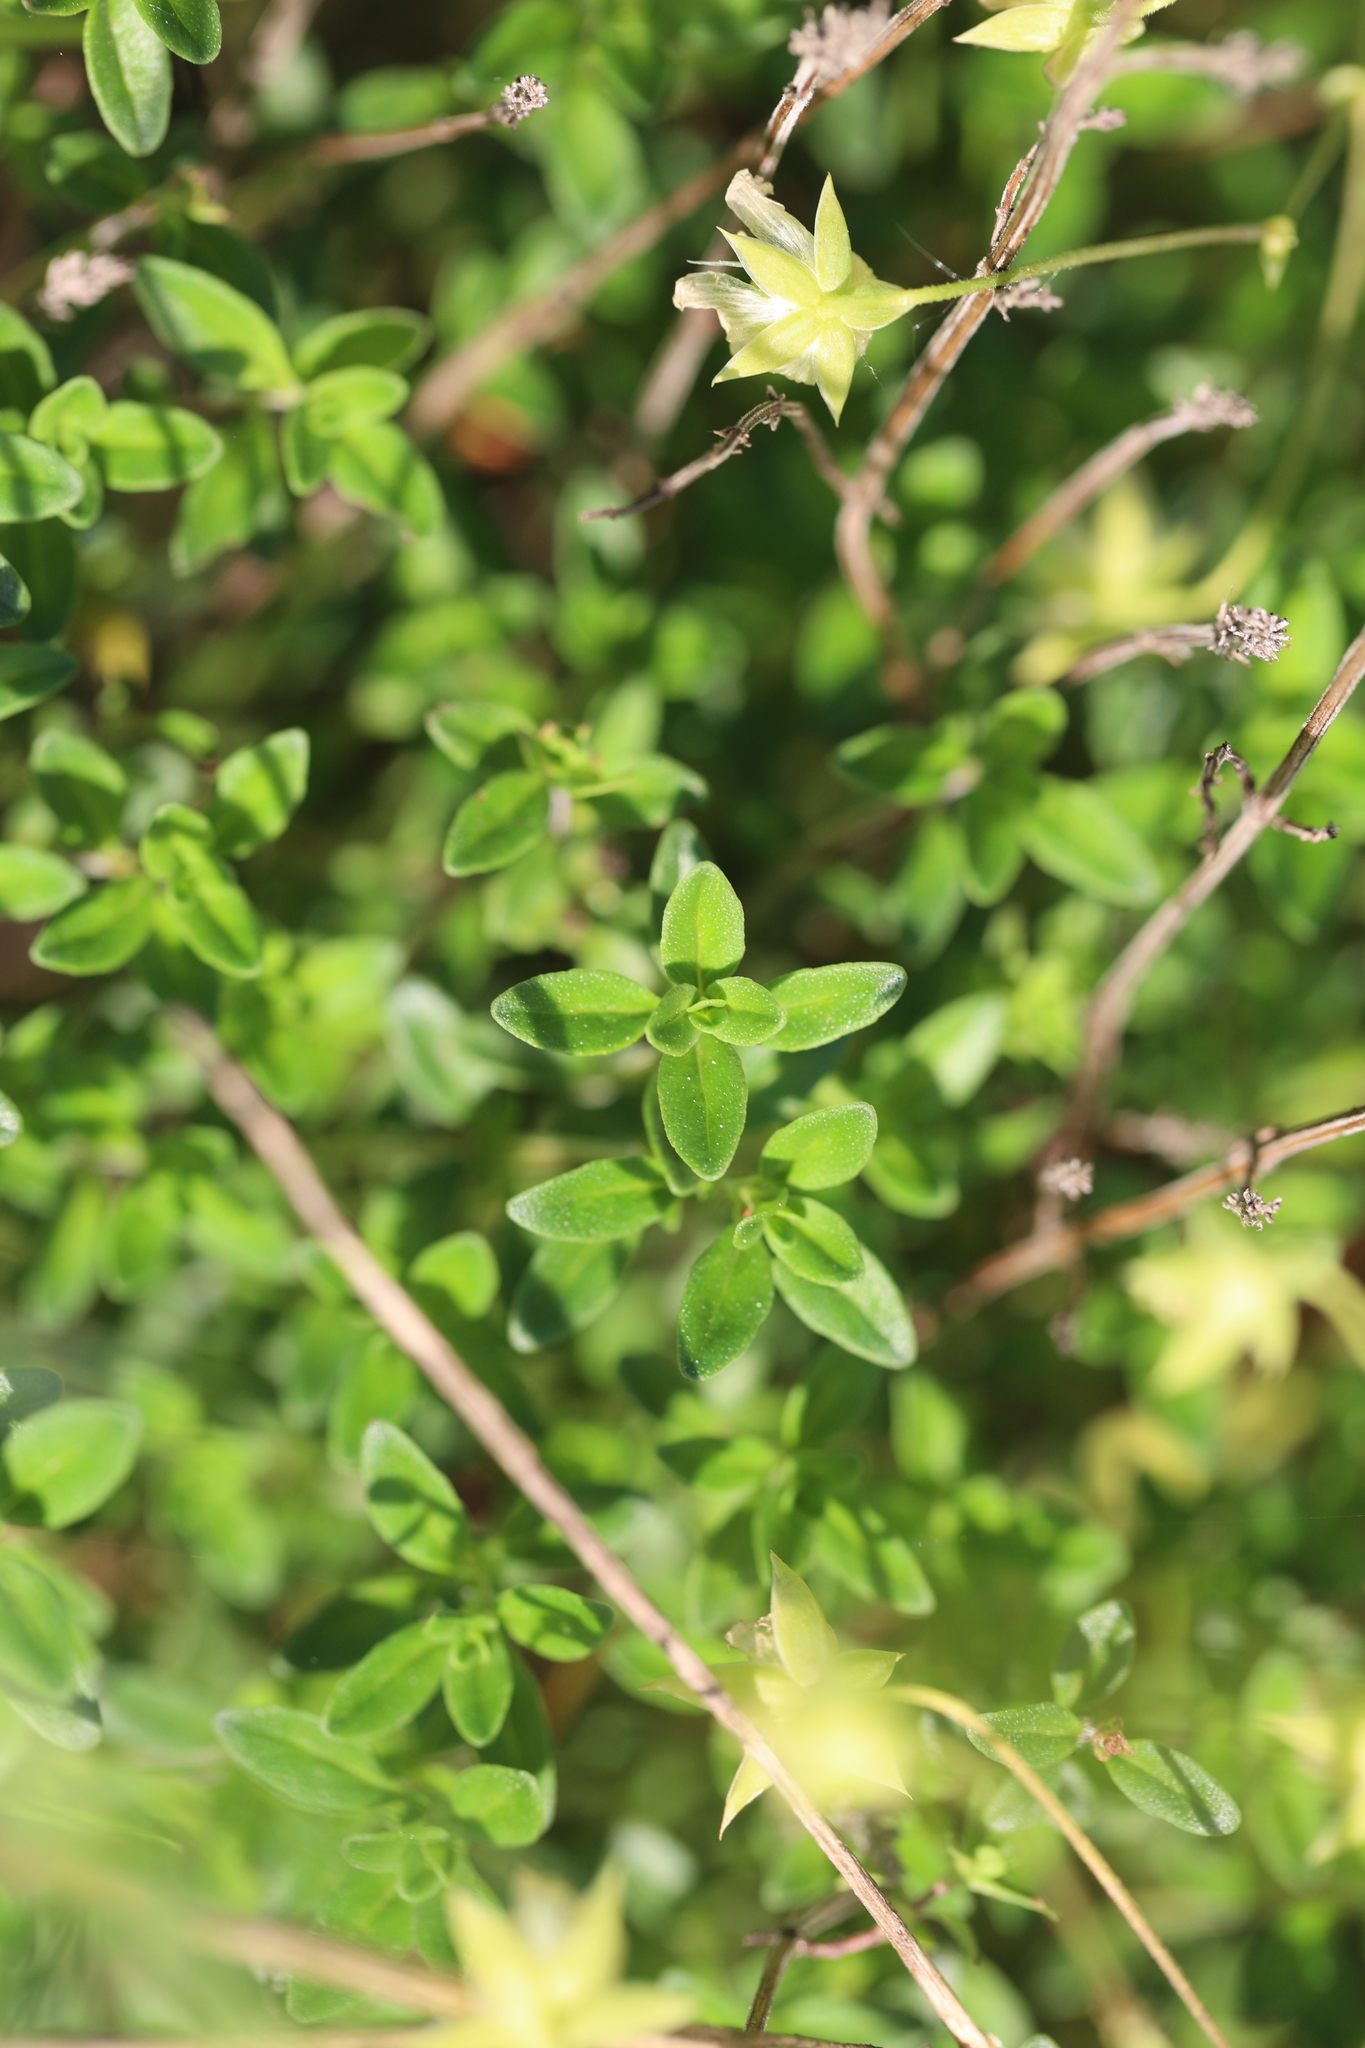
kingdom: Plantae
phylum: Tracheophyta
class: Magnoliopsida
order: Lamiales
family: Lamiaceae
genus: Thymus
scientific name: Thymus pulegioides
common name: Large thyme
